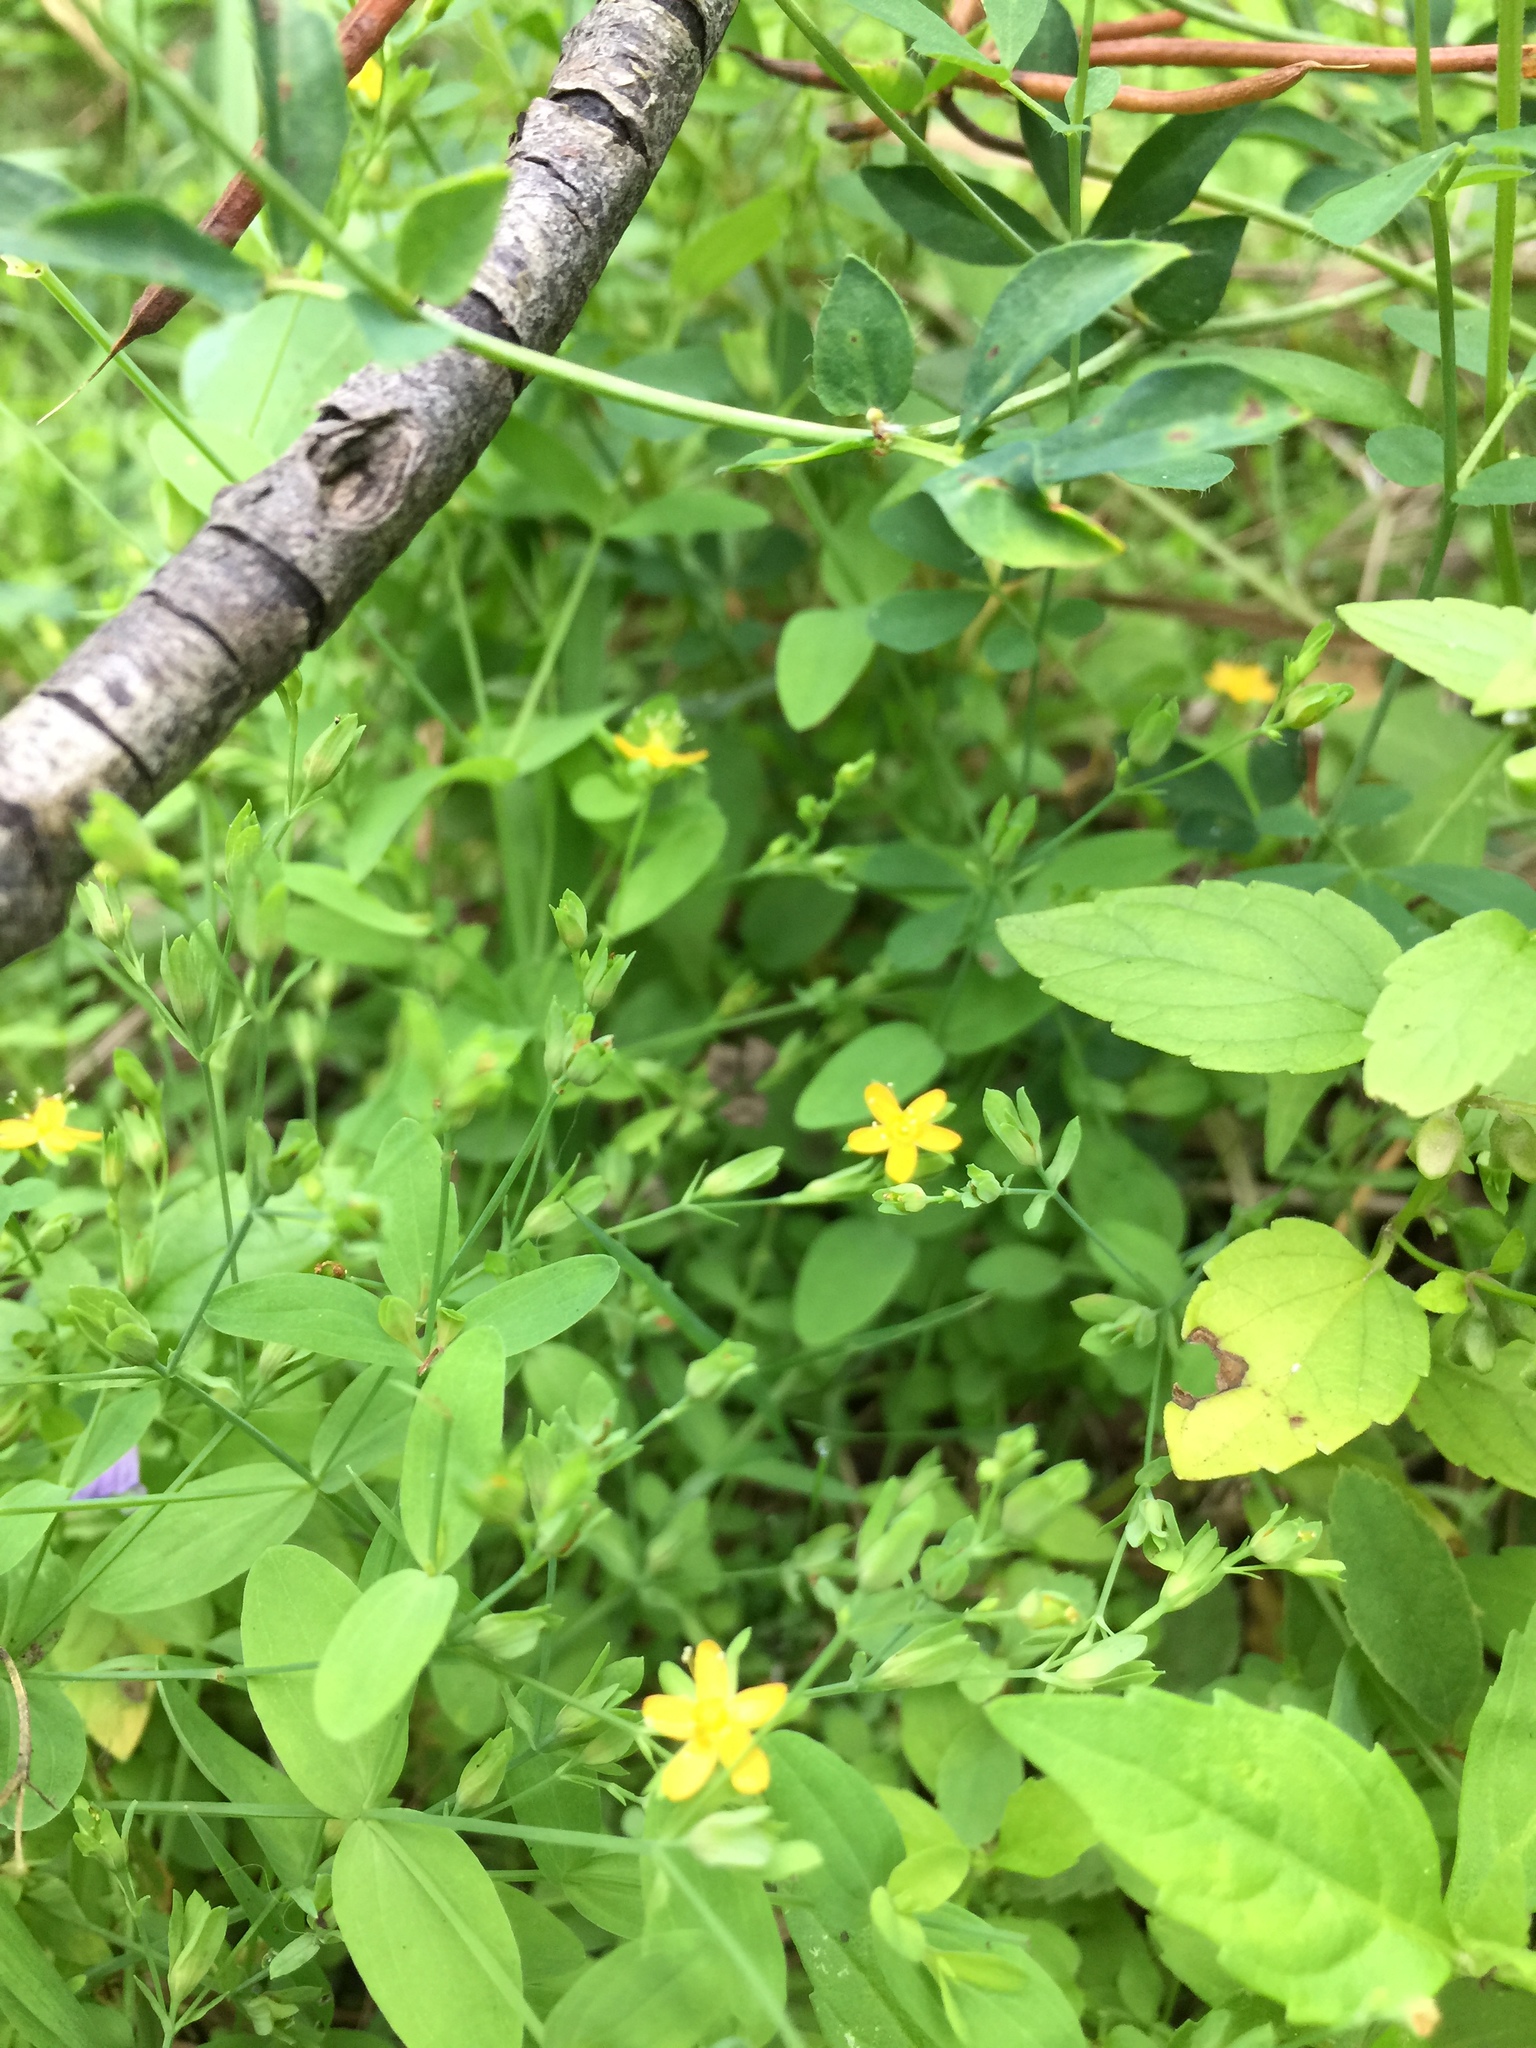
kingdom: Plantae
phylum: Tracheophyta
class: Magnoliopsida
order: Malpighiales
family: Hypericaceae
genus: Hypericum
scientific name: Hypericum mutilum
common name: Dwarf st. john's-wort
